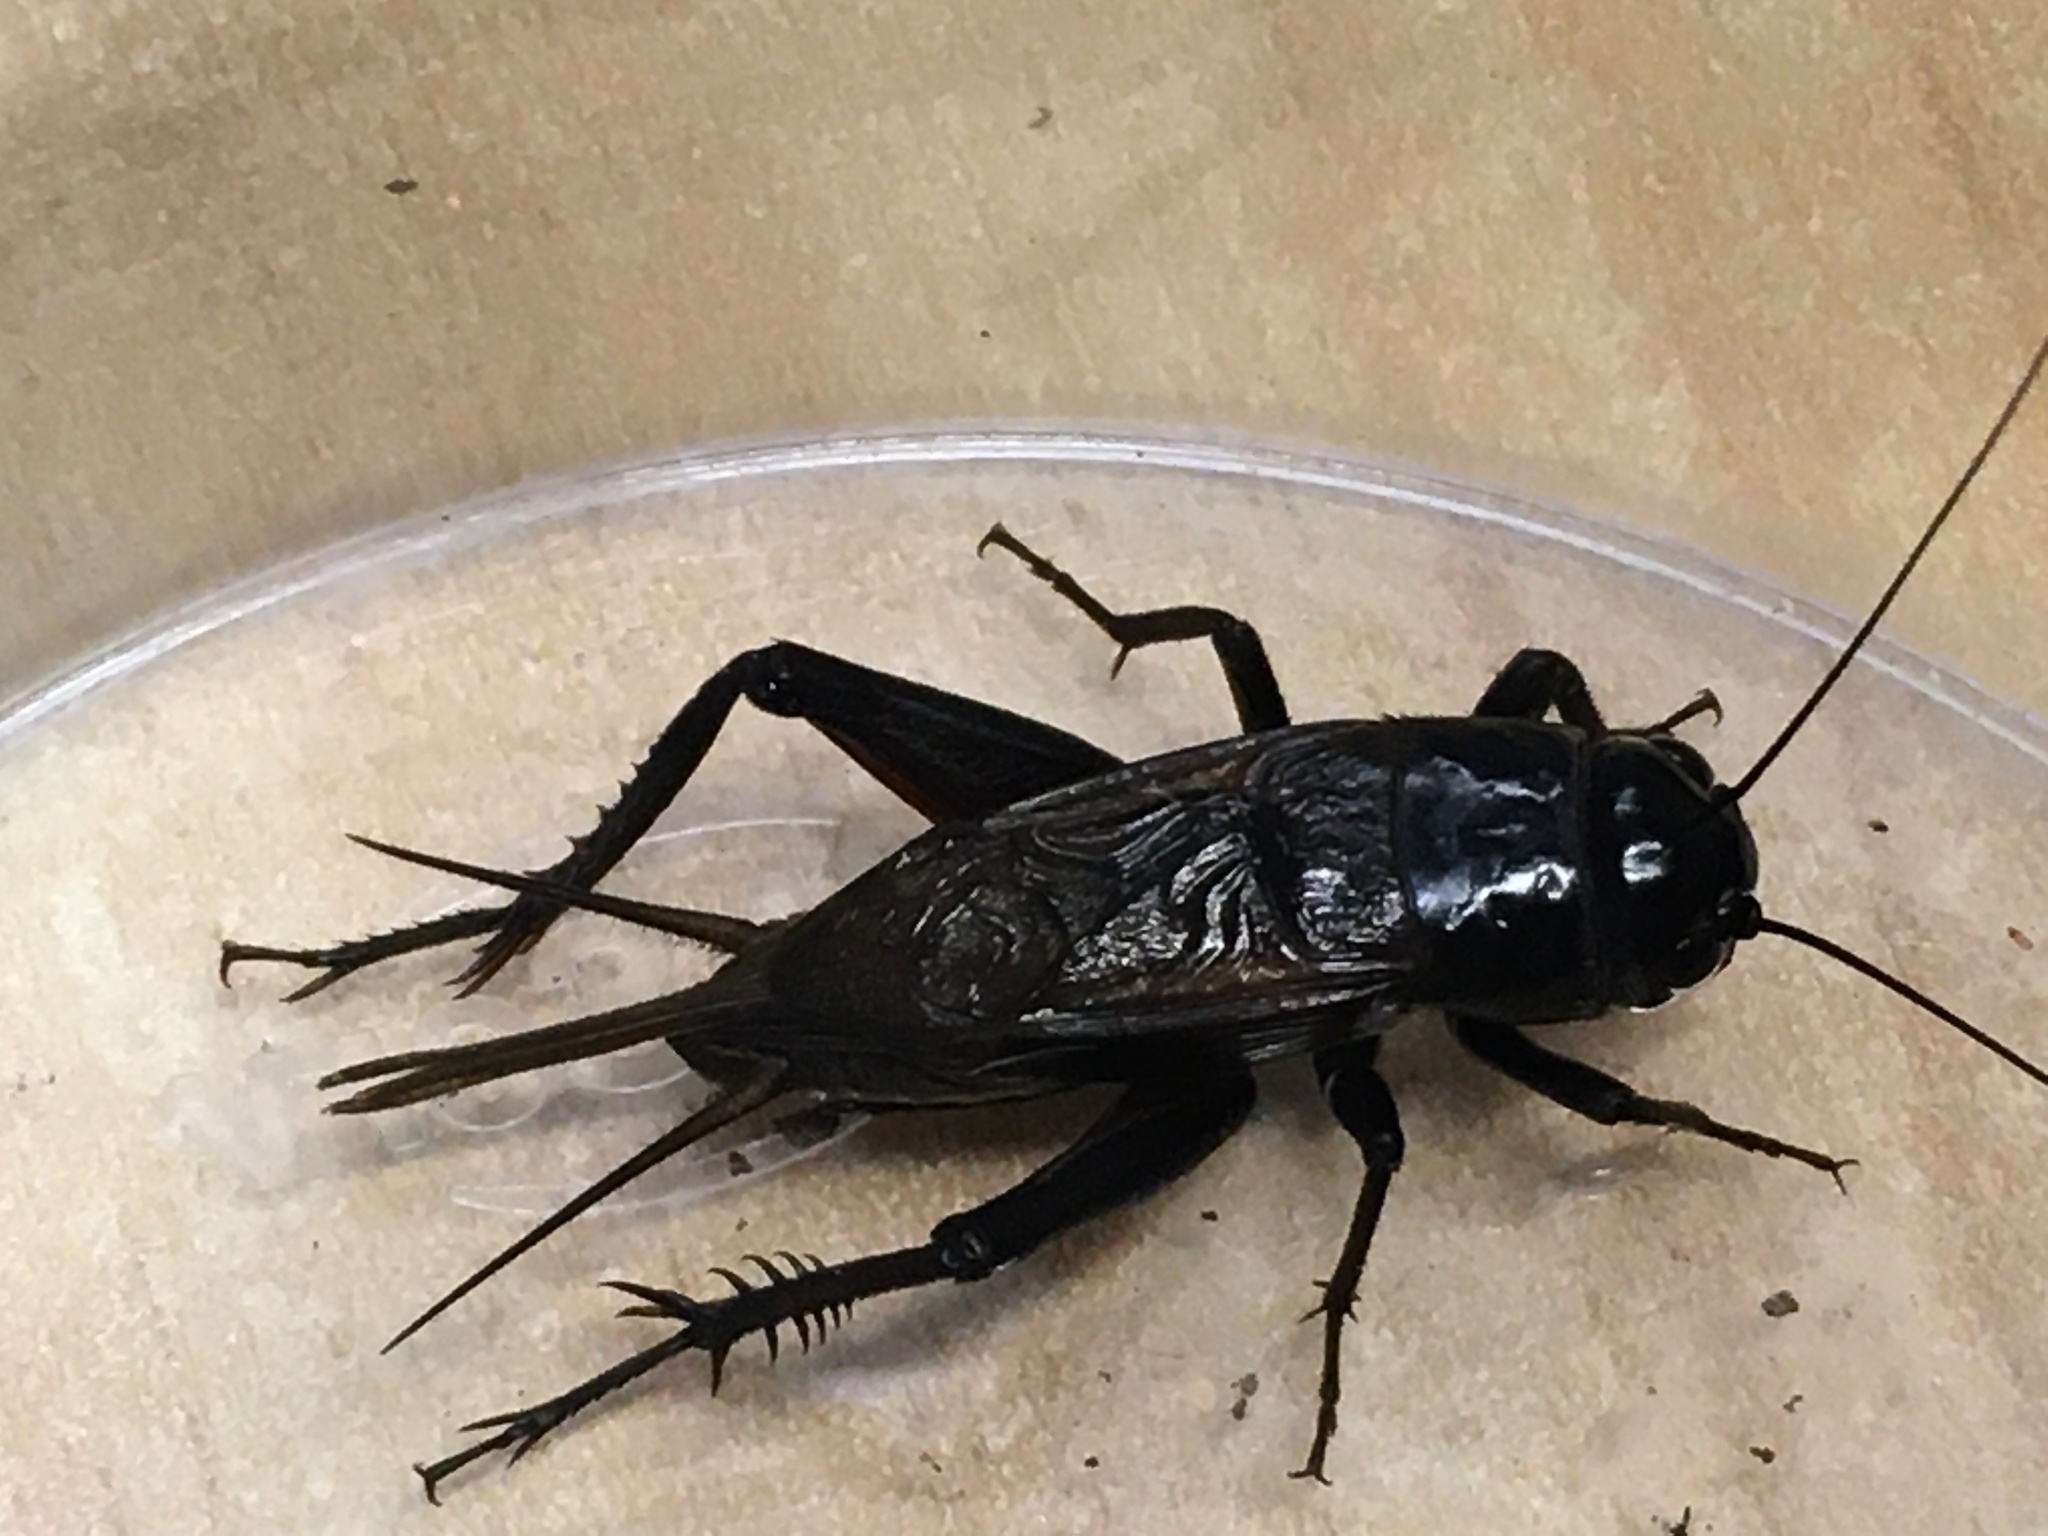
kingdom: Animalia
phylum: Arthropoda
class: Insecta
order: Orthoptera
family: Gryllidae
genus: Teleogryllus
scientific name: Teleogryllus commodus
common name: Black field cricket
